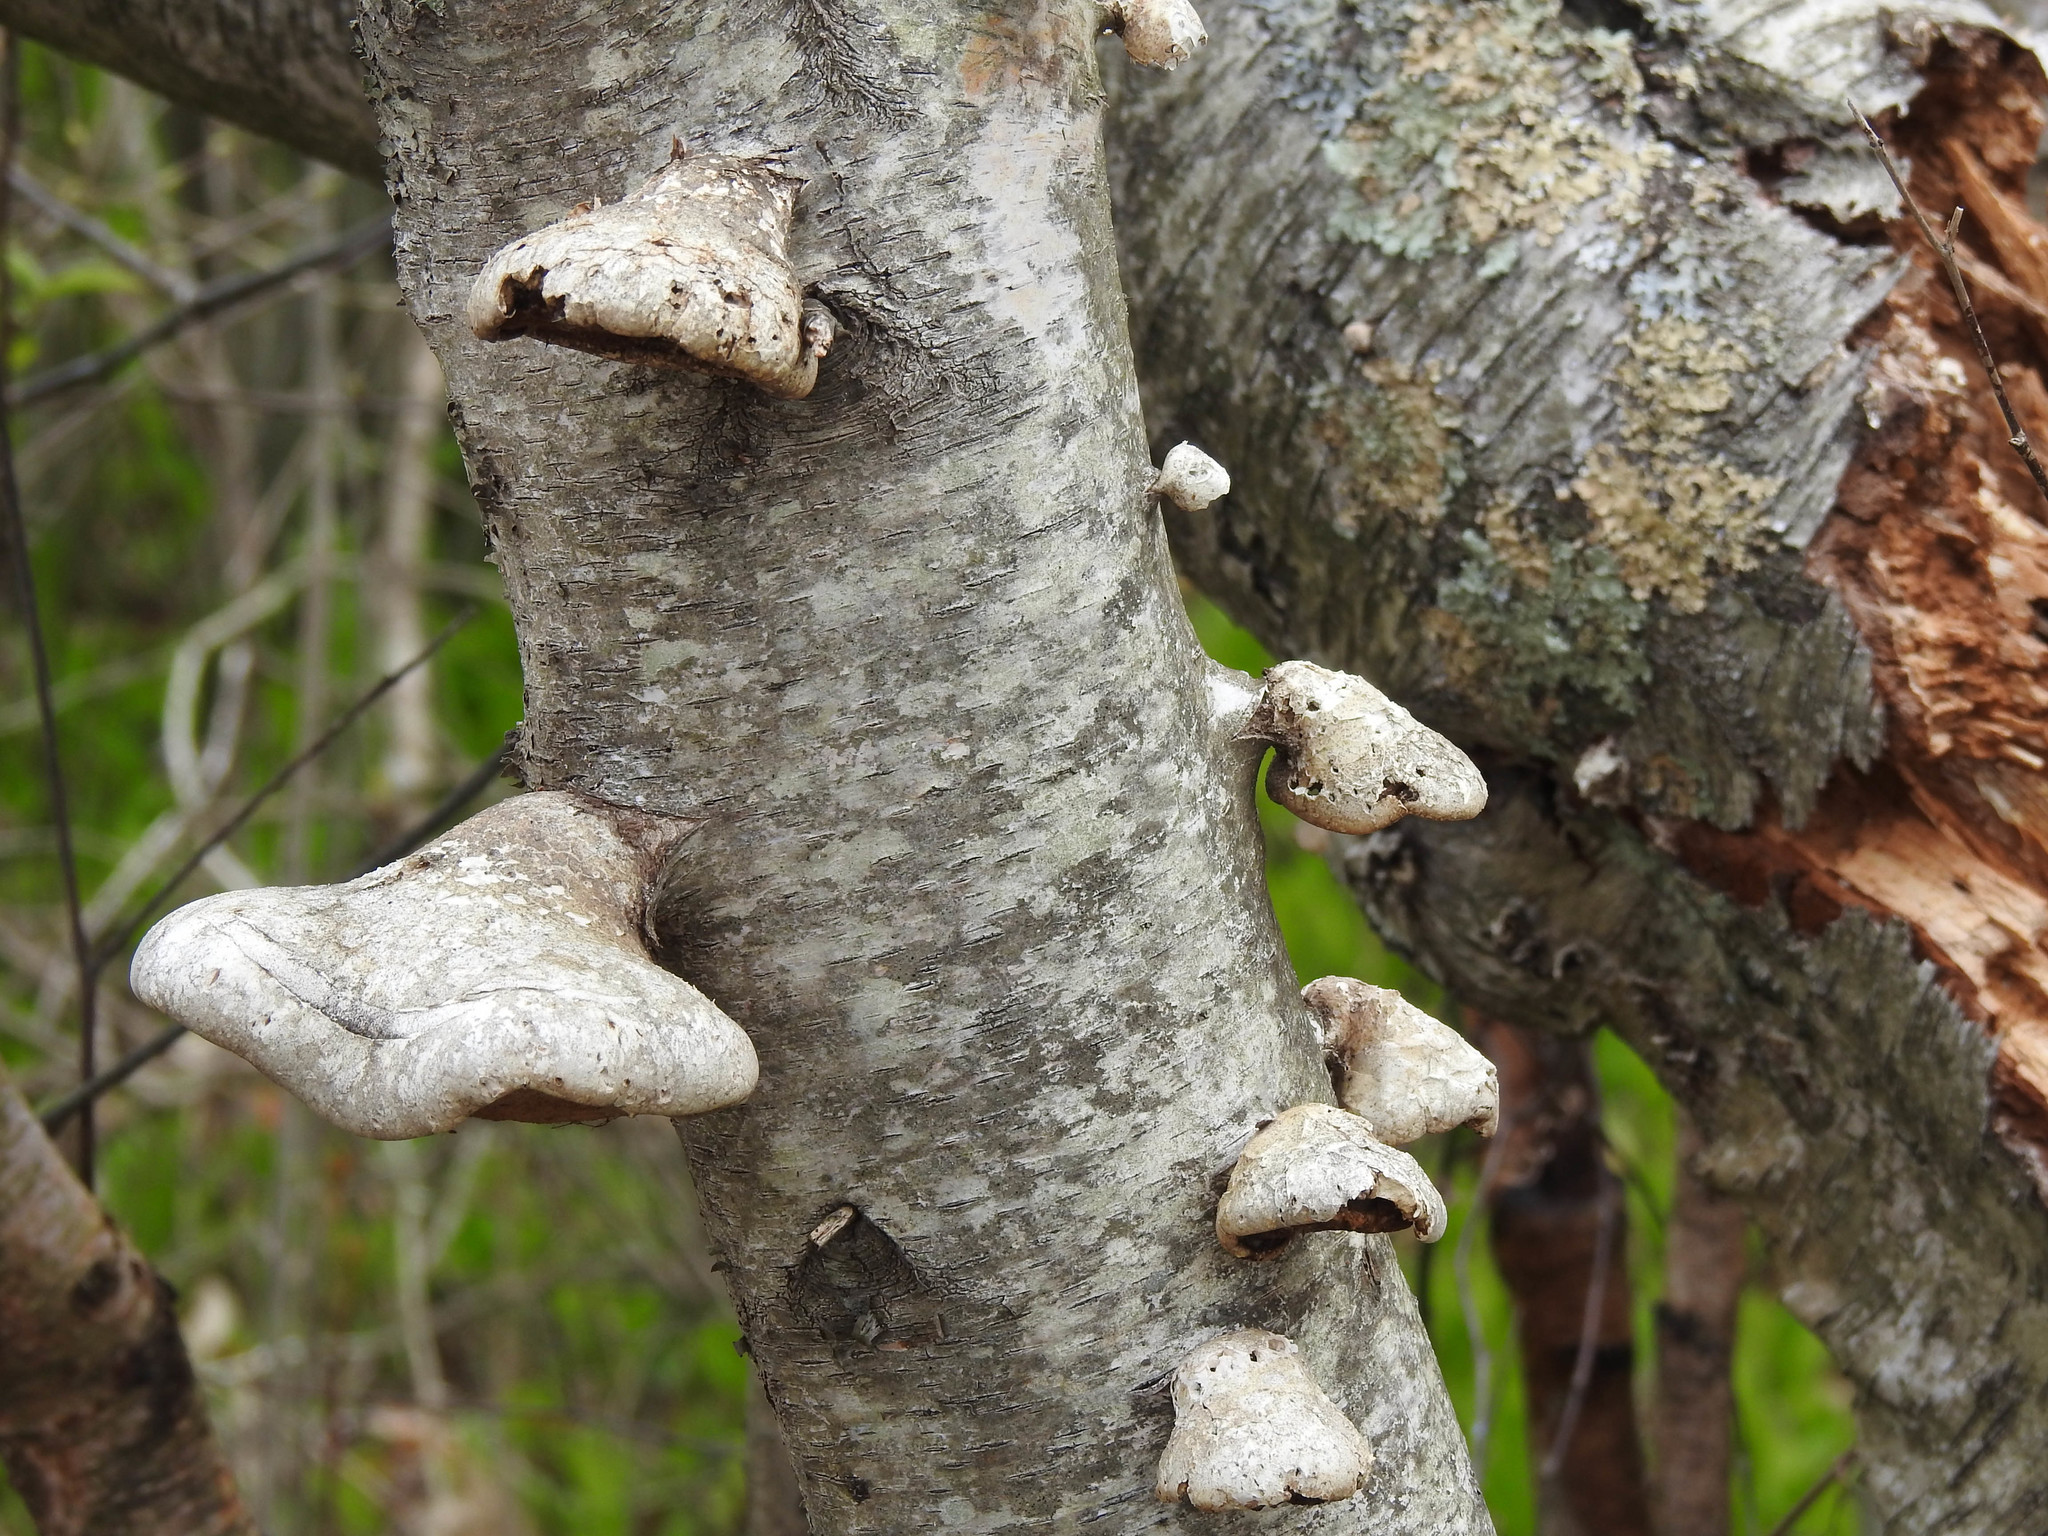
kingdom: Fungi
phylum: Basidiomycota
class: Agaricomycetes
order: Polyporales
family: Fomitopsidaceae
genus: Fomitopsis
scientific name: Fomitopsis betulina
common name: Birch polypore
